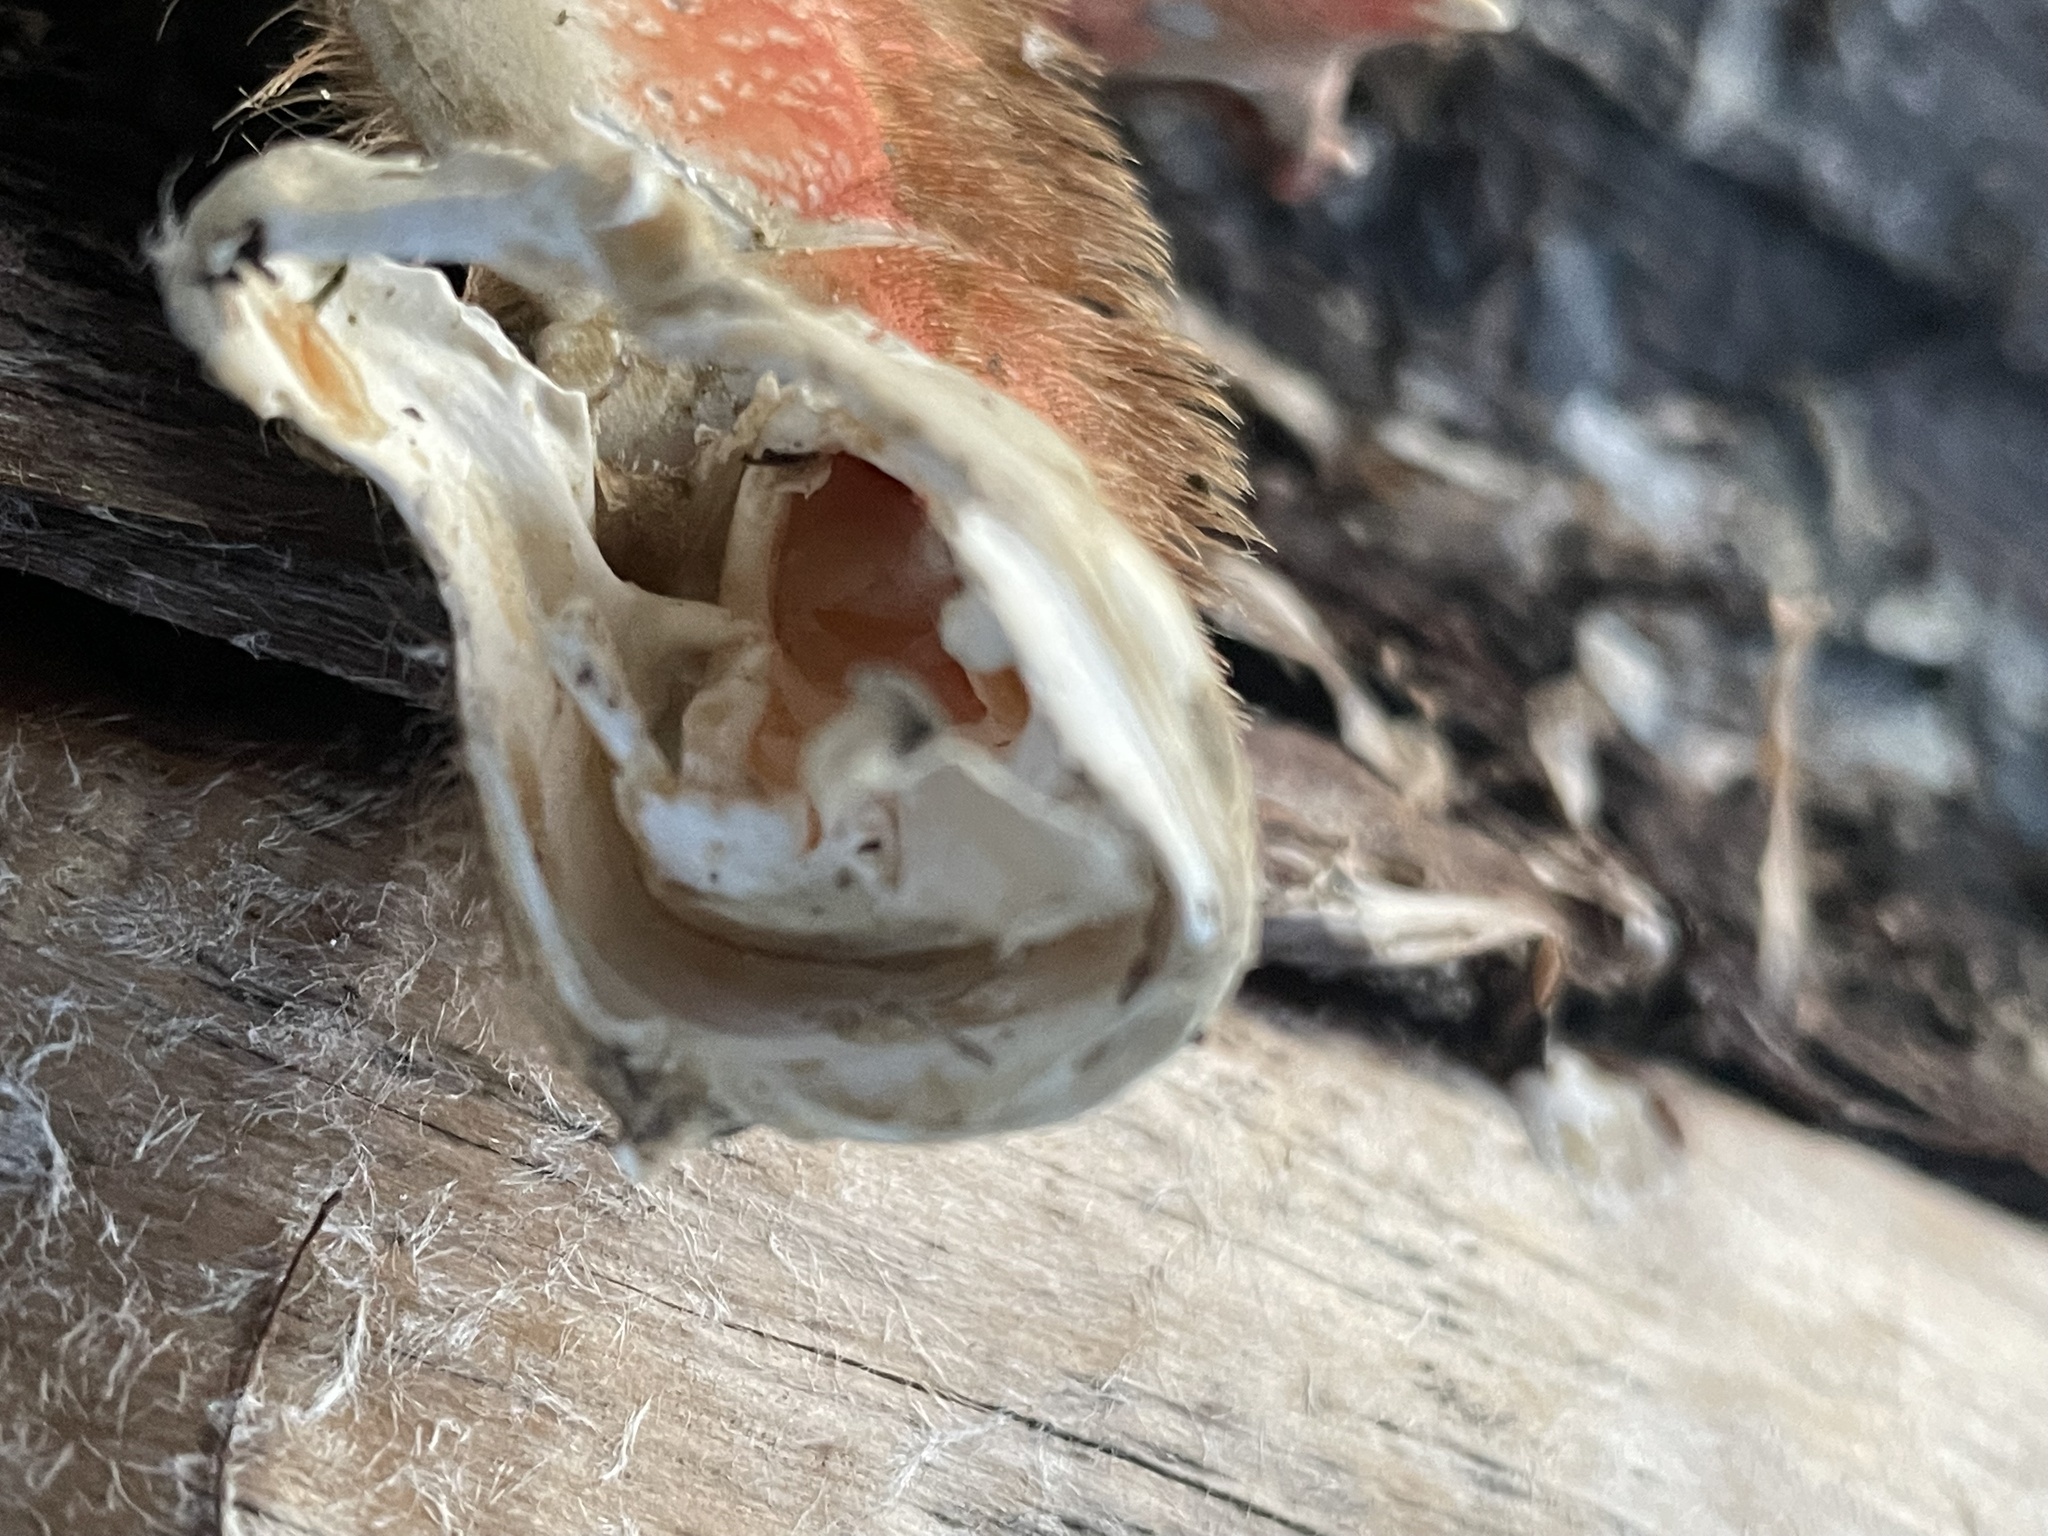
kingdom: Animalia
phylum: Arthropoda
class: Malacostraca
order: Decapoda
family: Cancridae
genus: Metacarcinus
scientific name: Metacarcinus magister
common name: Californian crab
